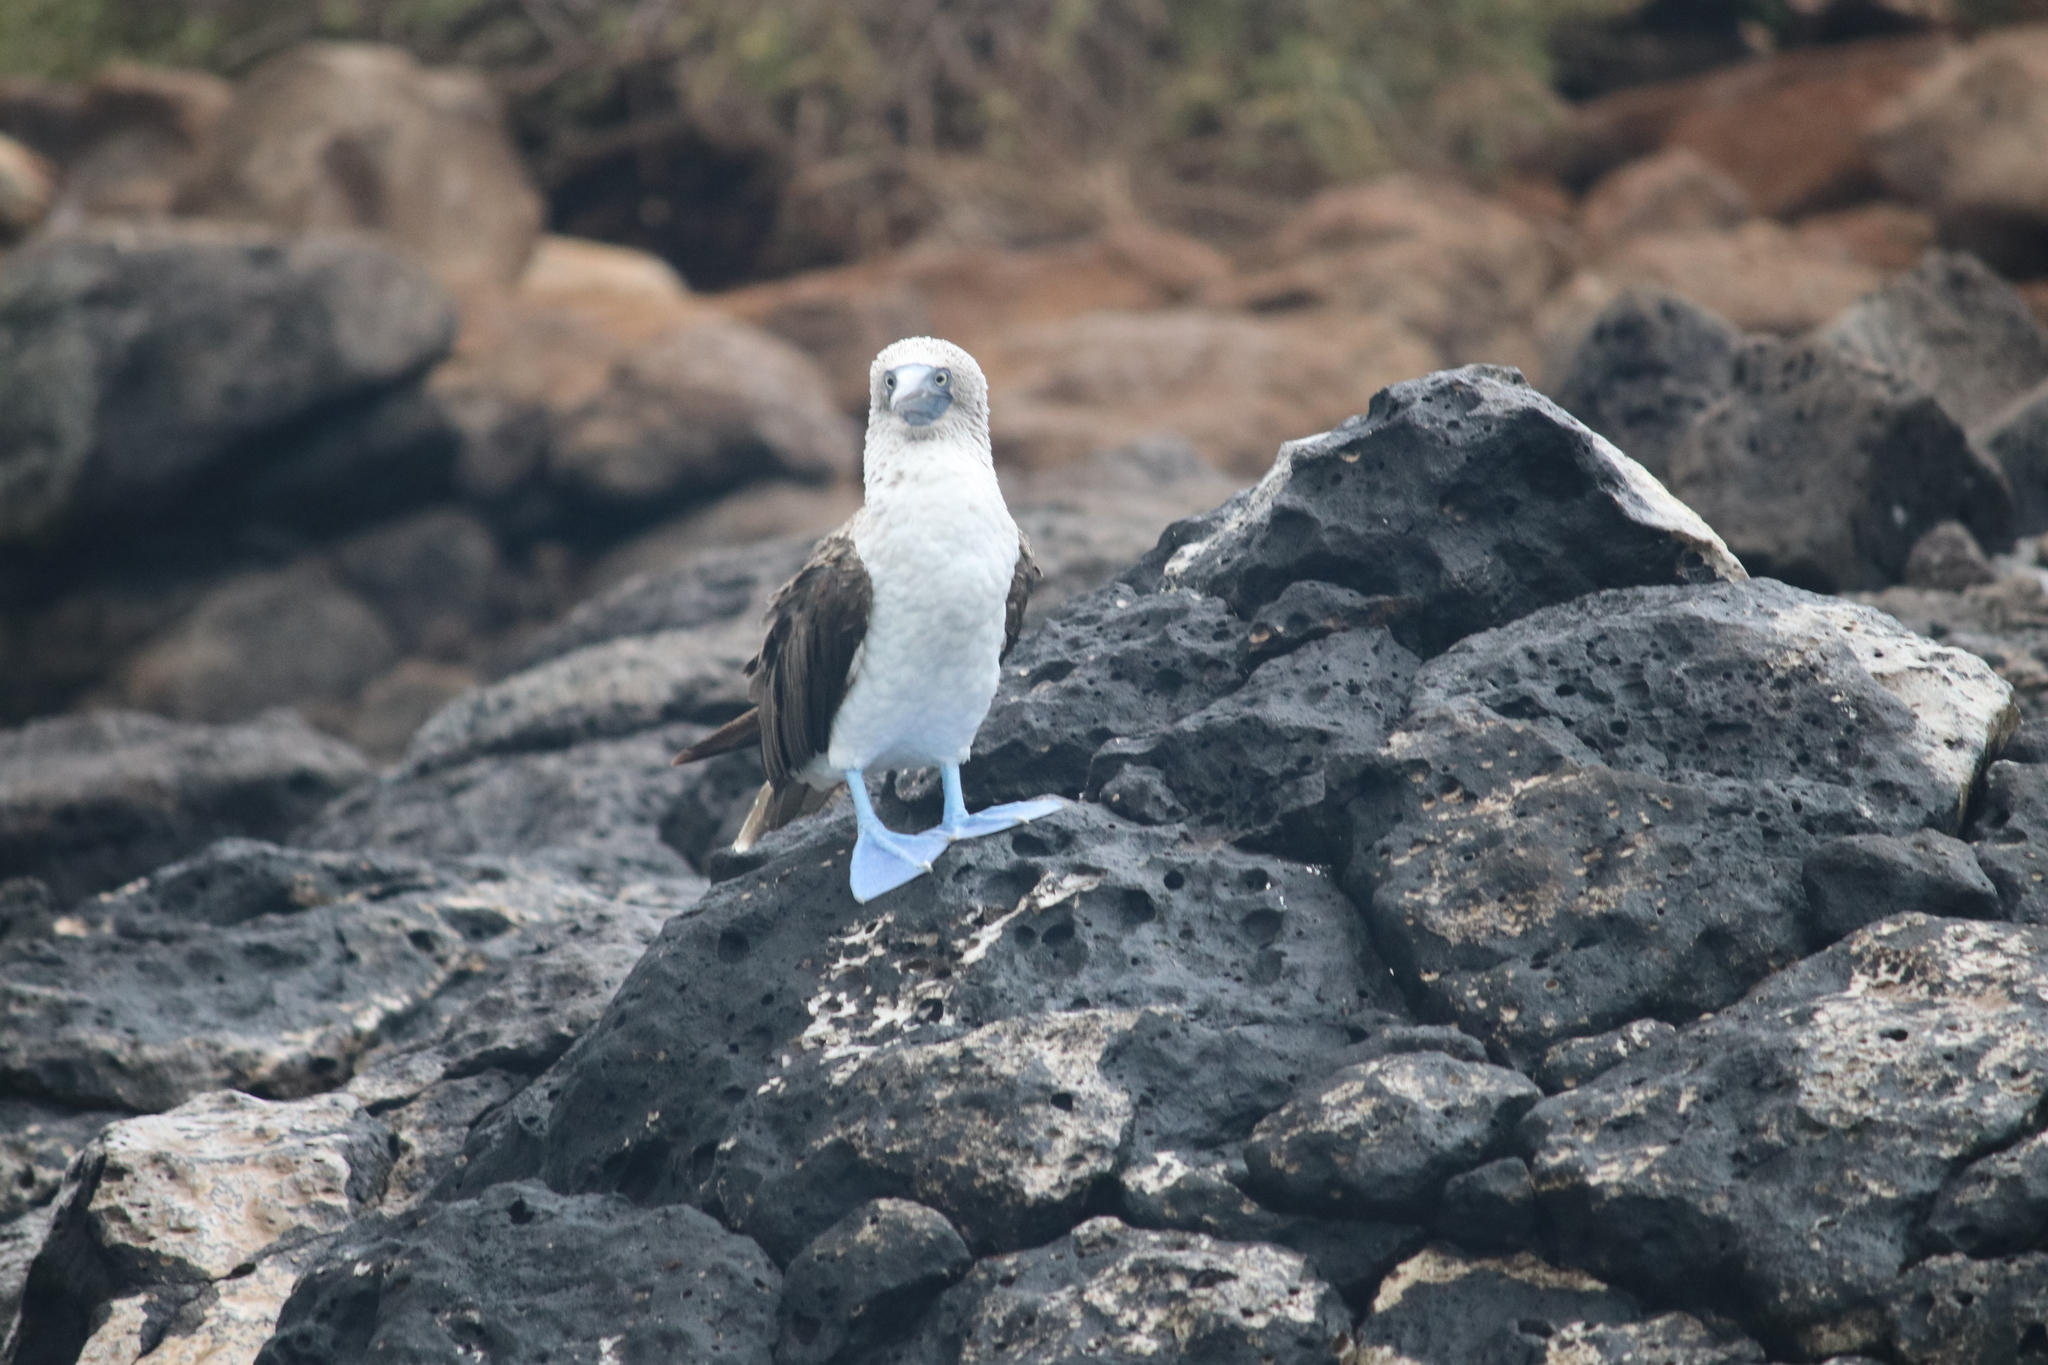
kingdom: Animalia
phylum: Chordata
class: Aves
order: Suliformes
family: Sulidae
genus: Sula
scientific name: Sula nebouxii
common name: Blue-footed booby
